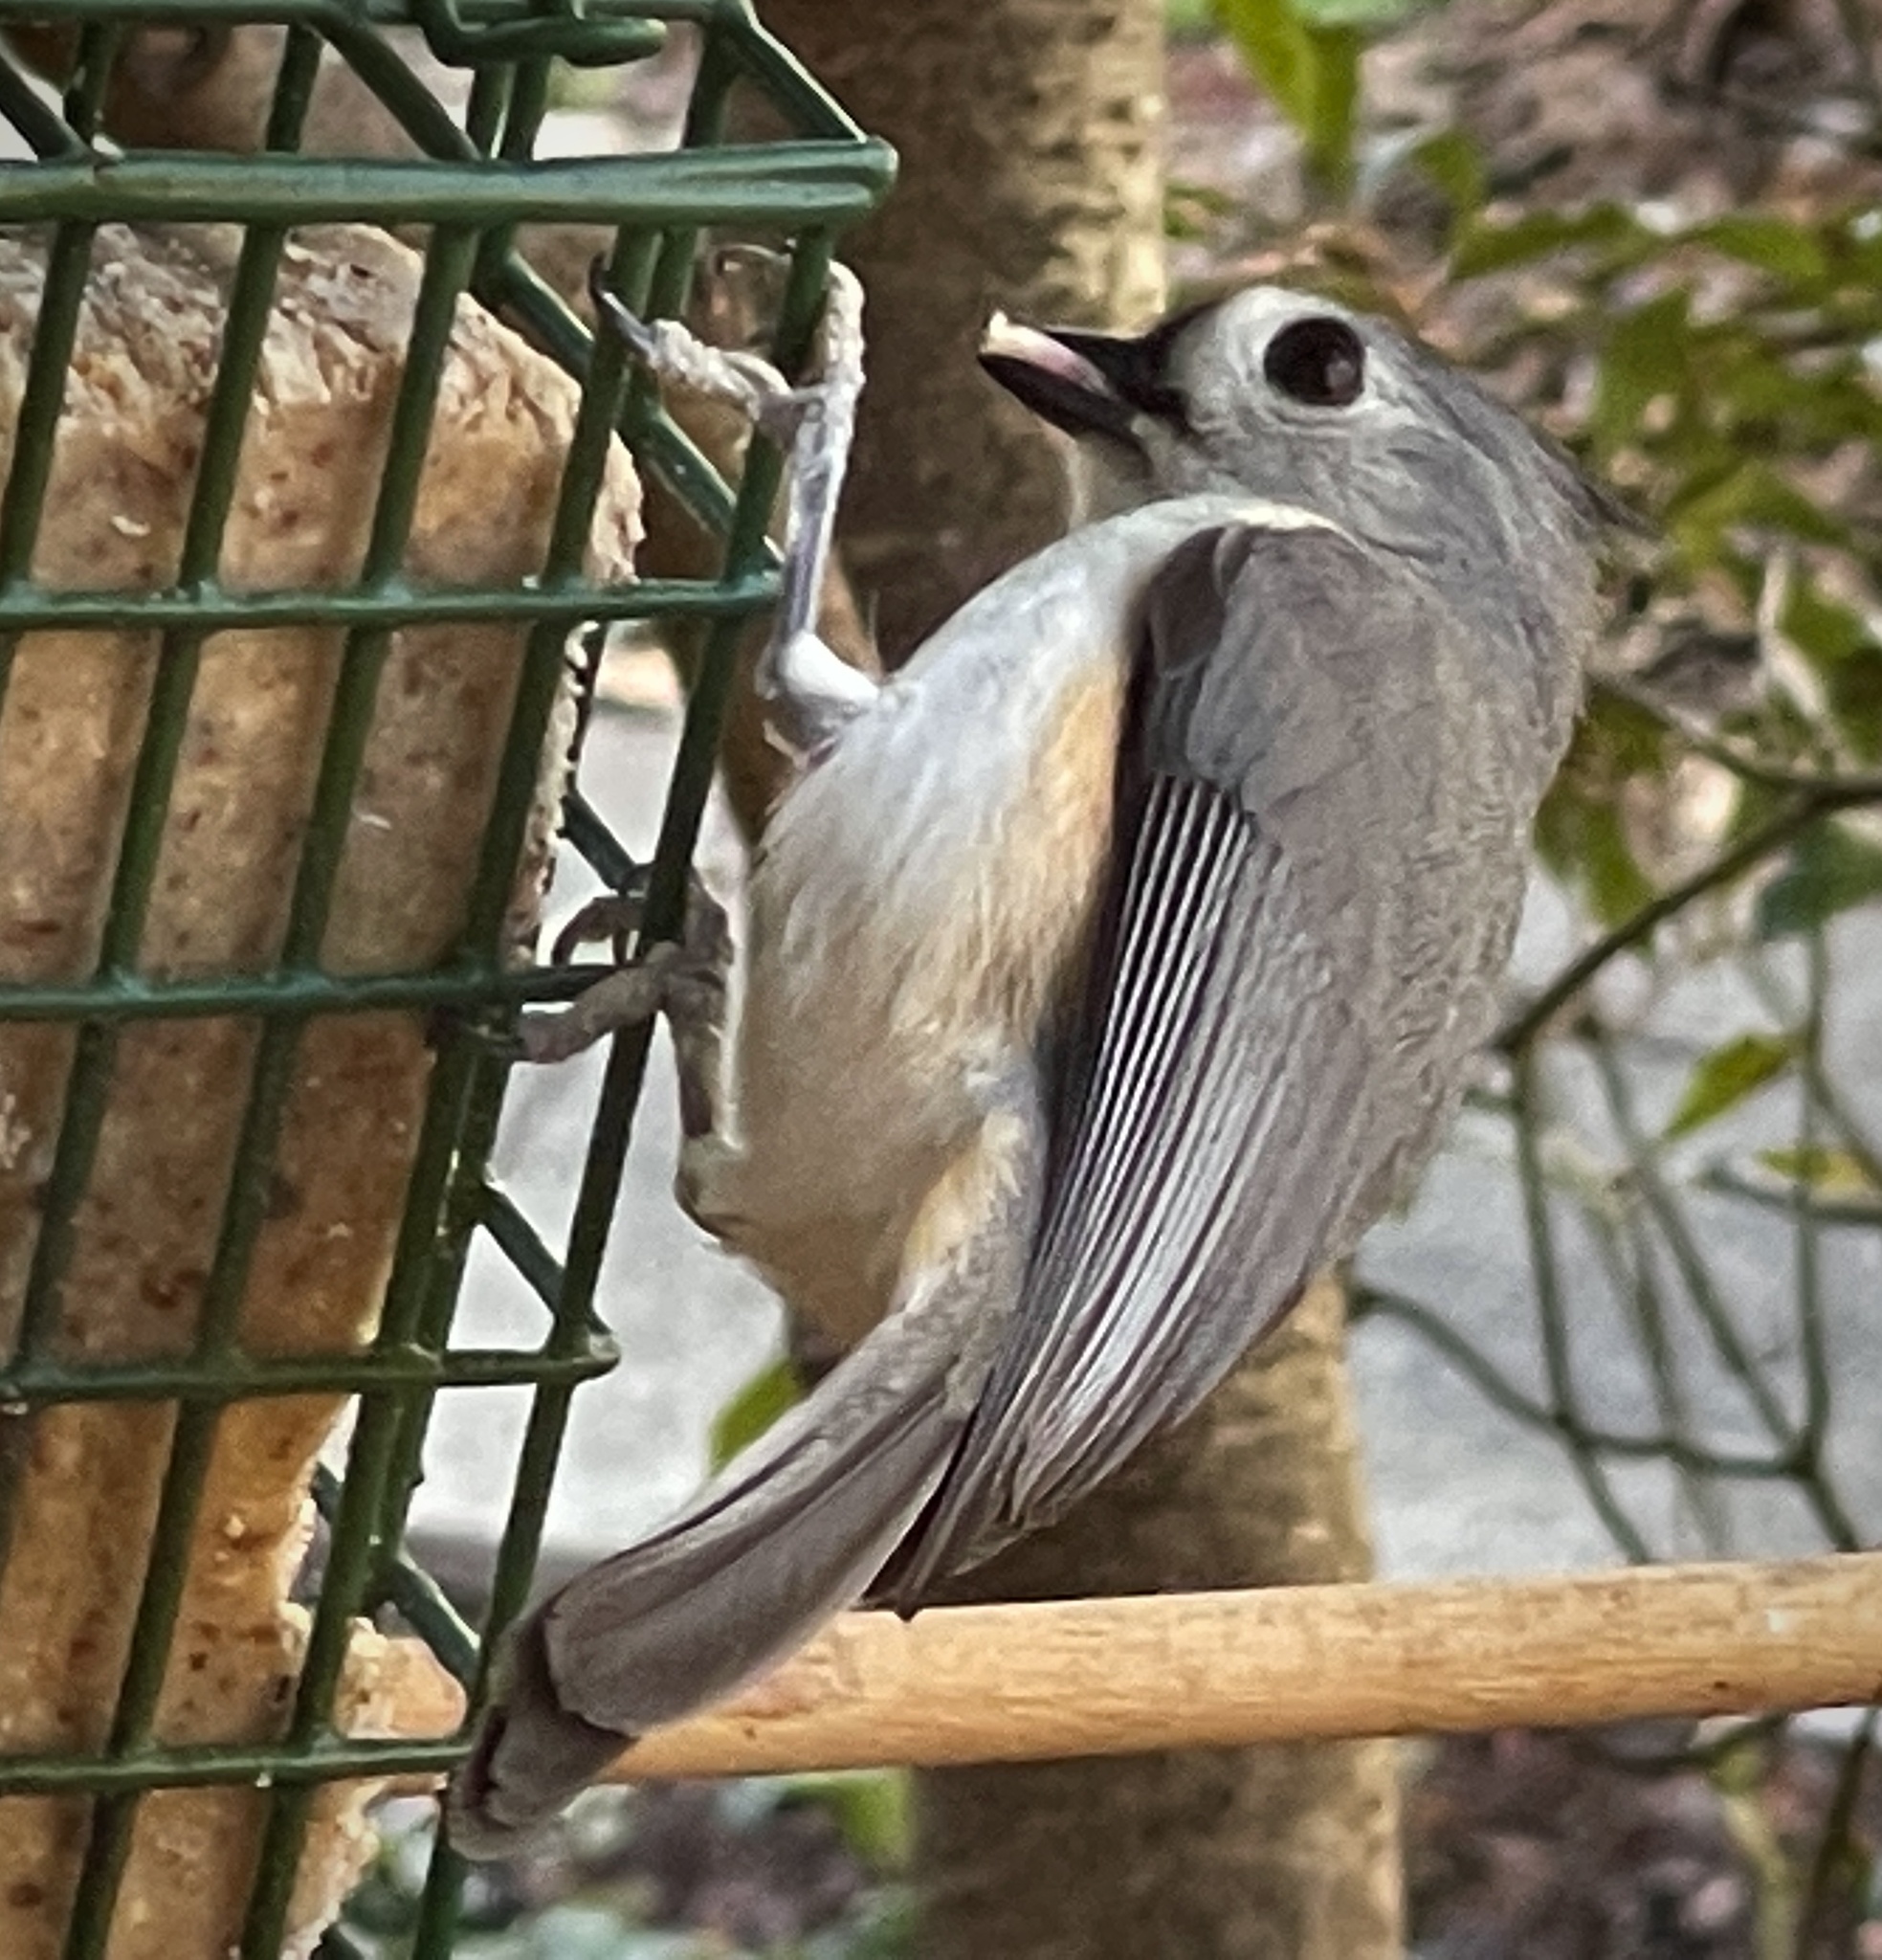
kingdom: Animalia
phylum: Chordata
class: Aves
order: Passeriformes
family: Paridae
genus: Baeolophus
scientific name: Baeolophus bicolor
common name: Tufted titmouse
